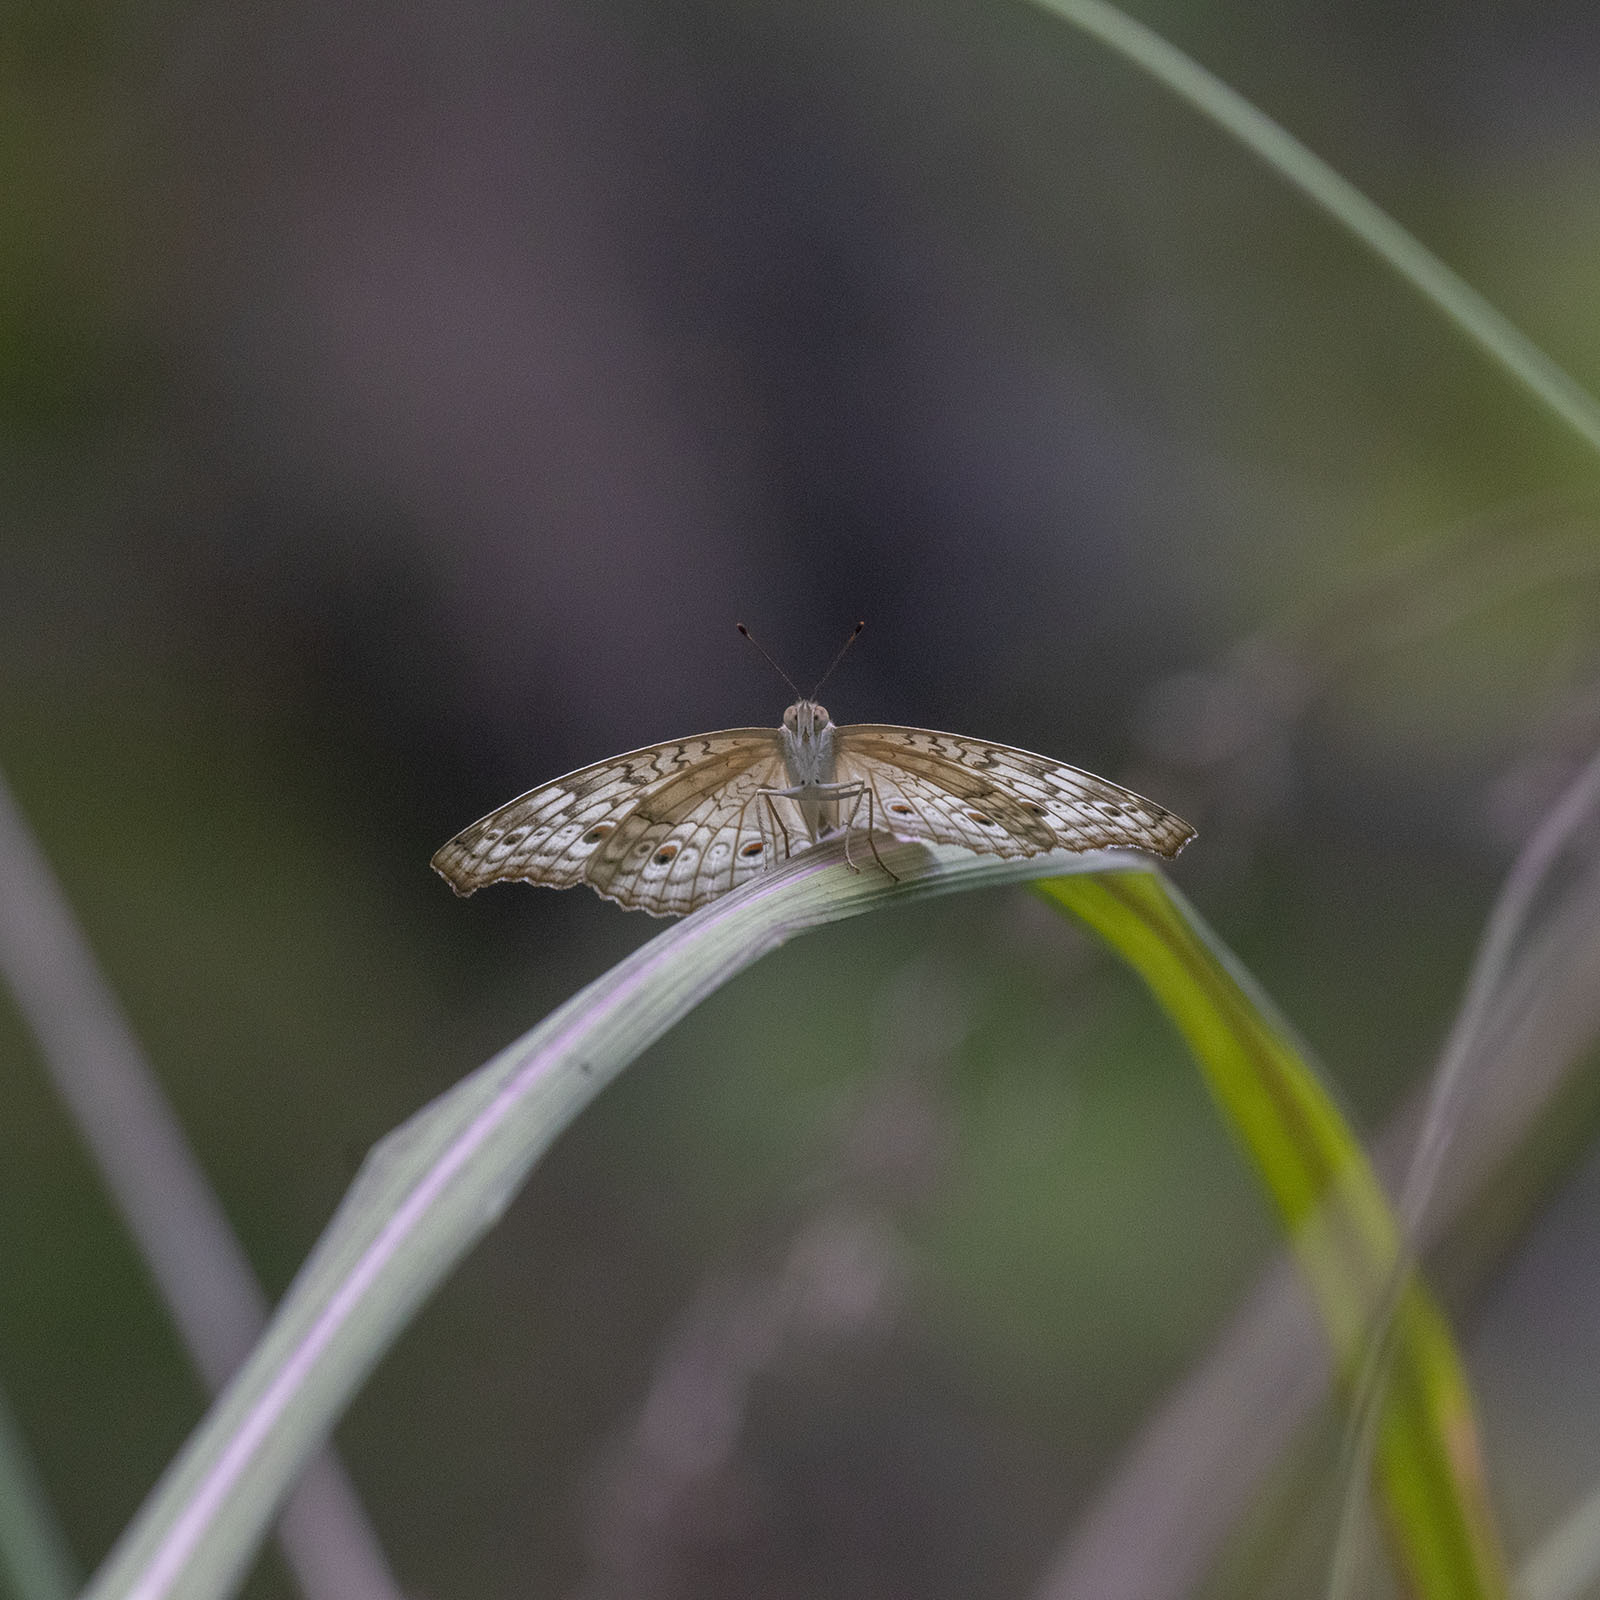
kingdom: Animalia
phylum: Arthropoda
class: Insecta
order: Lepidoptera
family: Nymphalidae
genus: Junonia
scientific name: Junonia atlites
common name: Grey pansy
